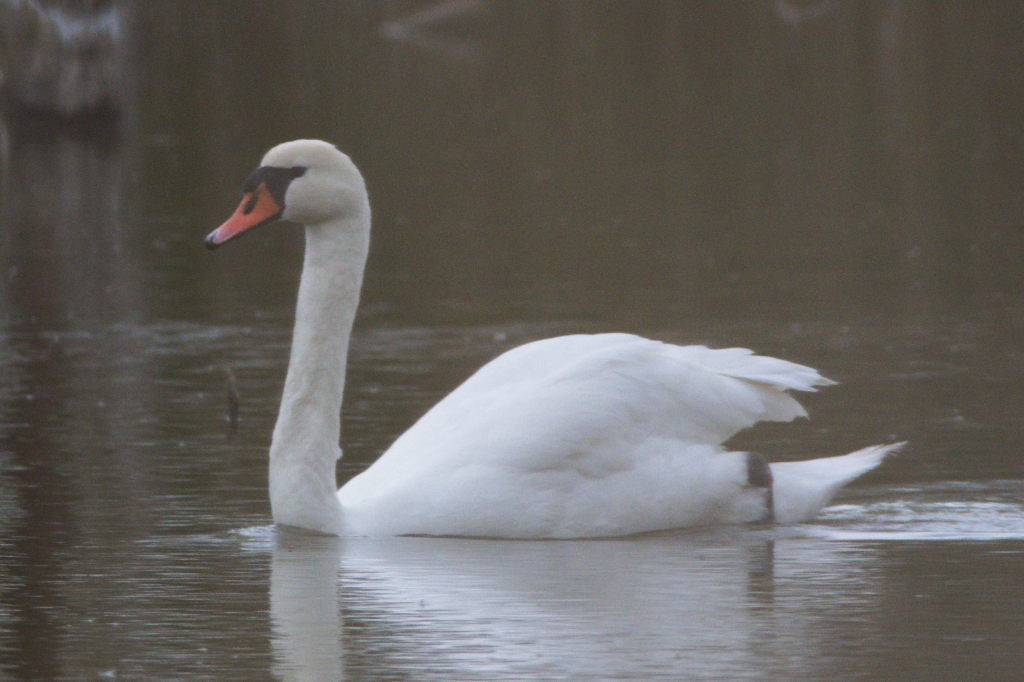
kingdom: Animalia
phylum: Chordata
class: Aves
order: Anseriformes
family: Anatidae
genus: Cygnus
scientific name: Cygnus olor
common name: Mute swan
